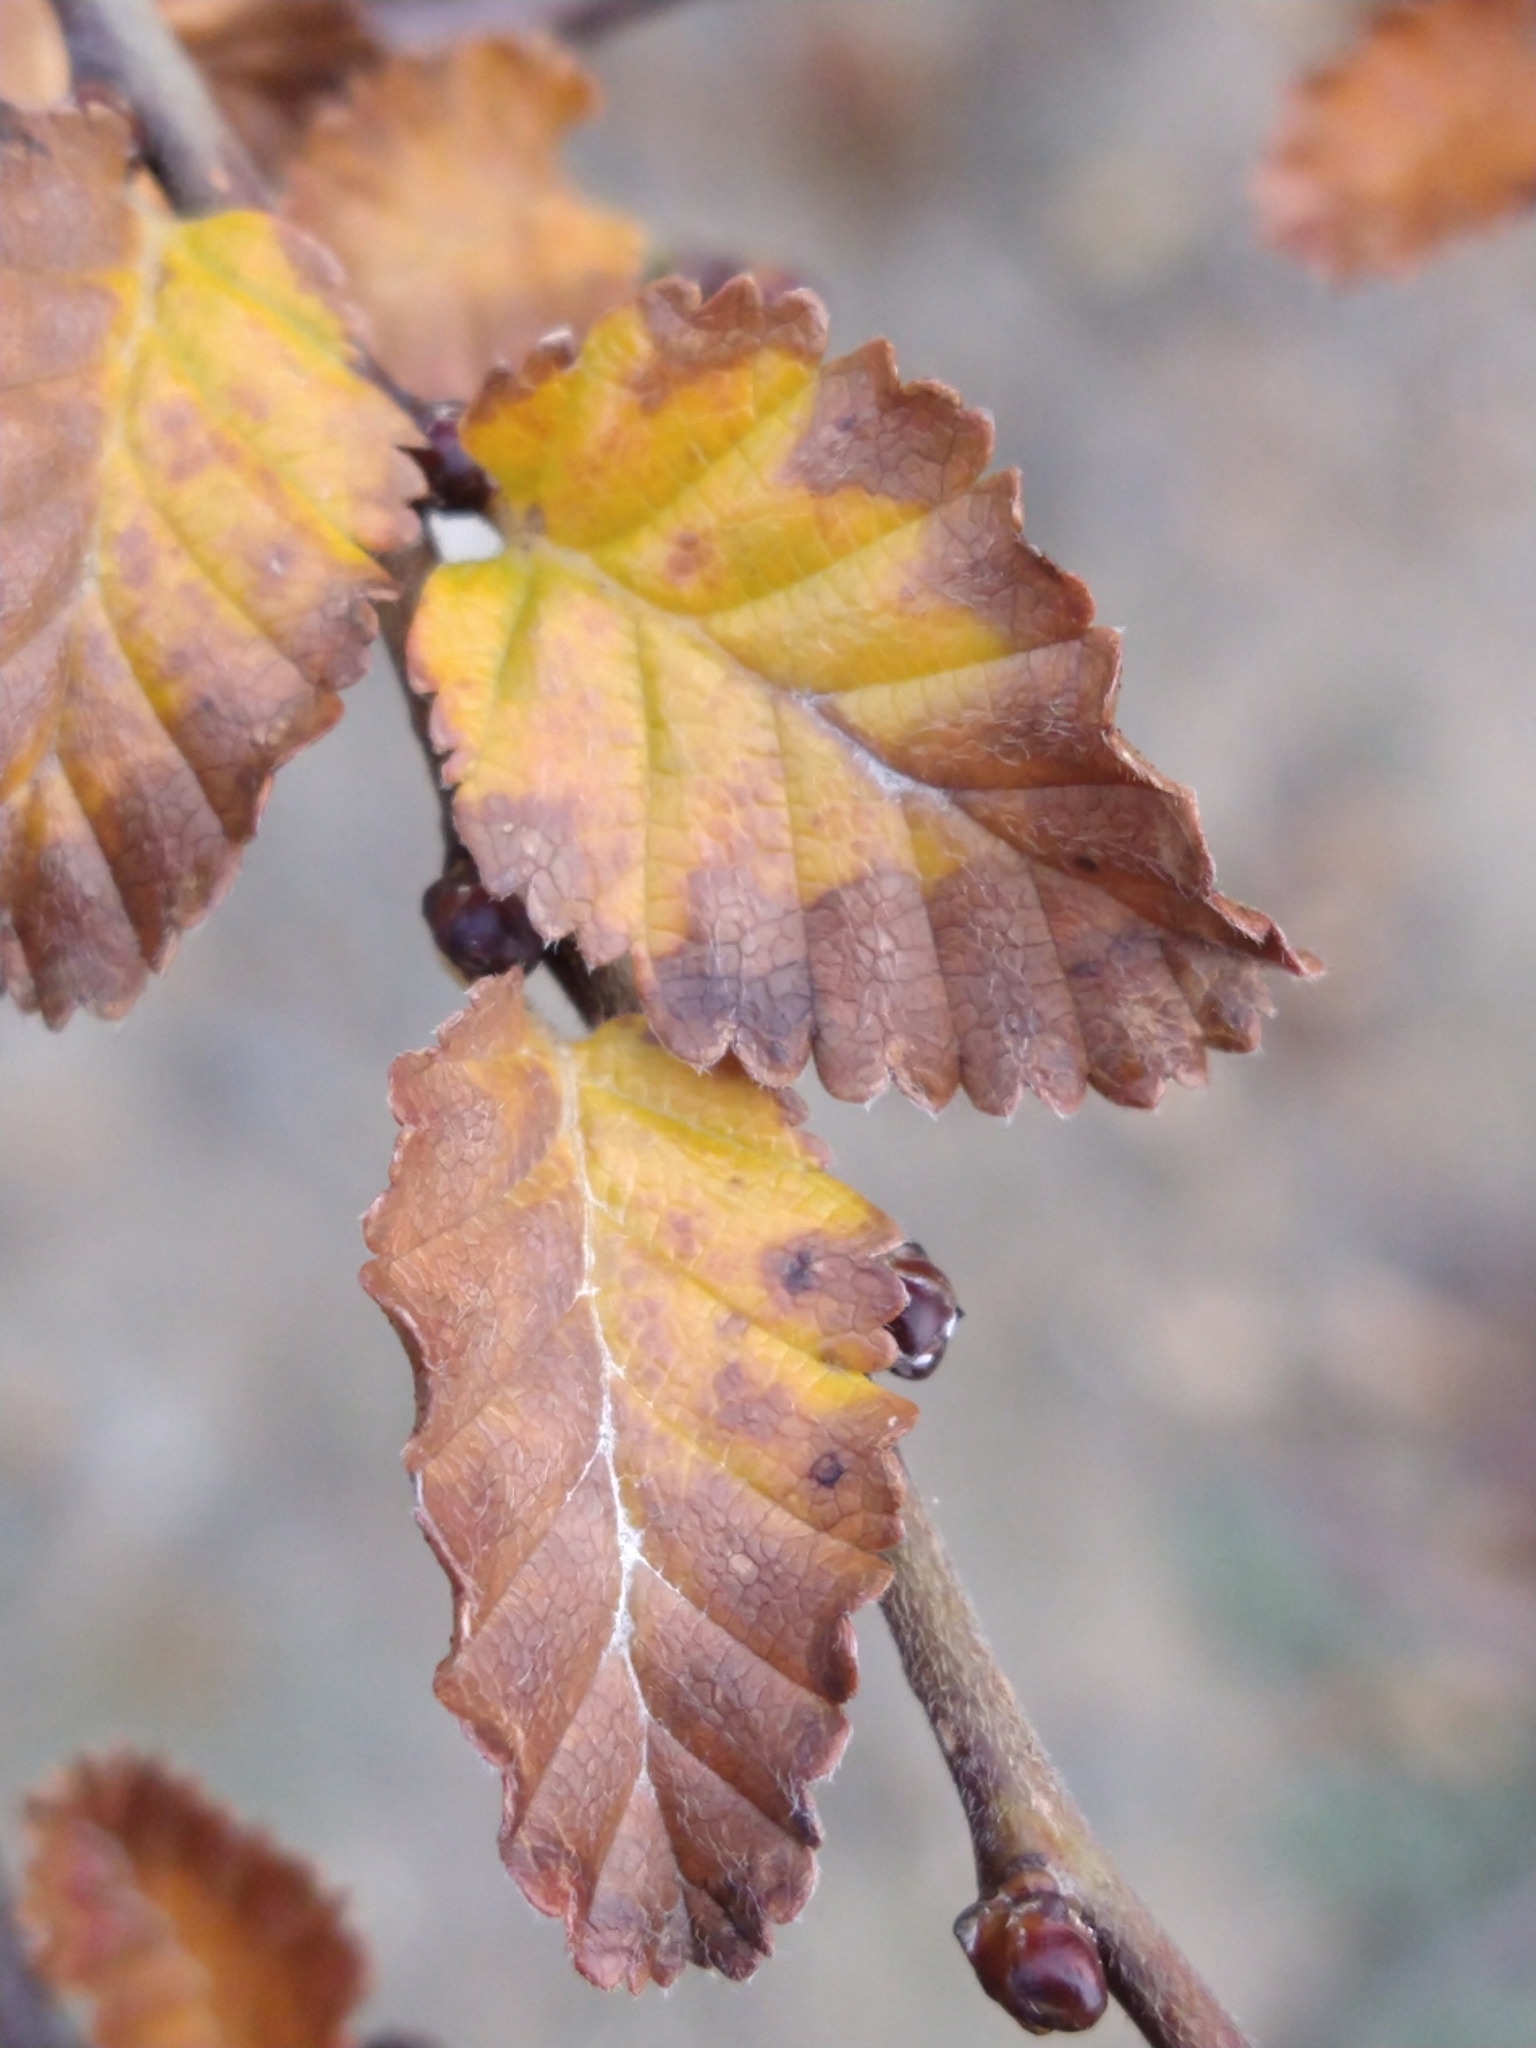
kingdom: Plantae
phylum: Tracheophyta
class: Magnoliopsida
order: Fagales
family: Nothofagaceae
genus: Nothofagus
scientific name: Nothofagus pumilio
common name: Lenga beech
